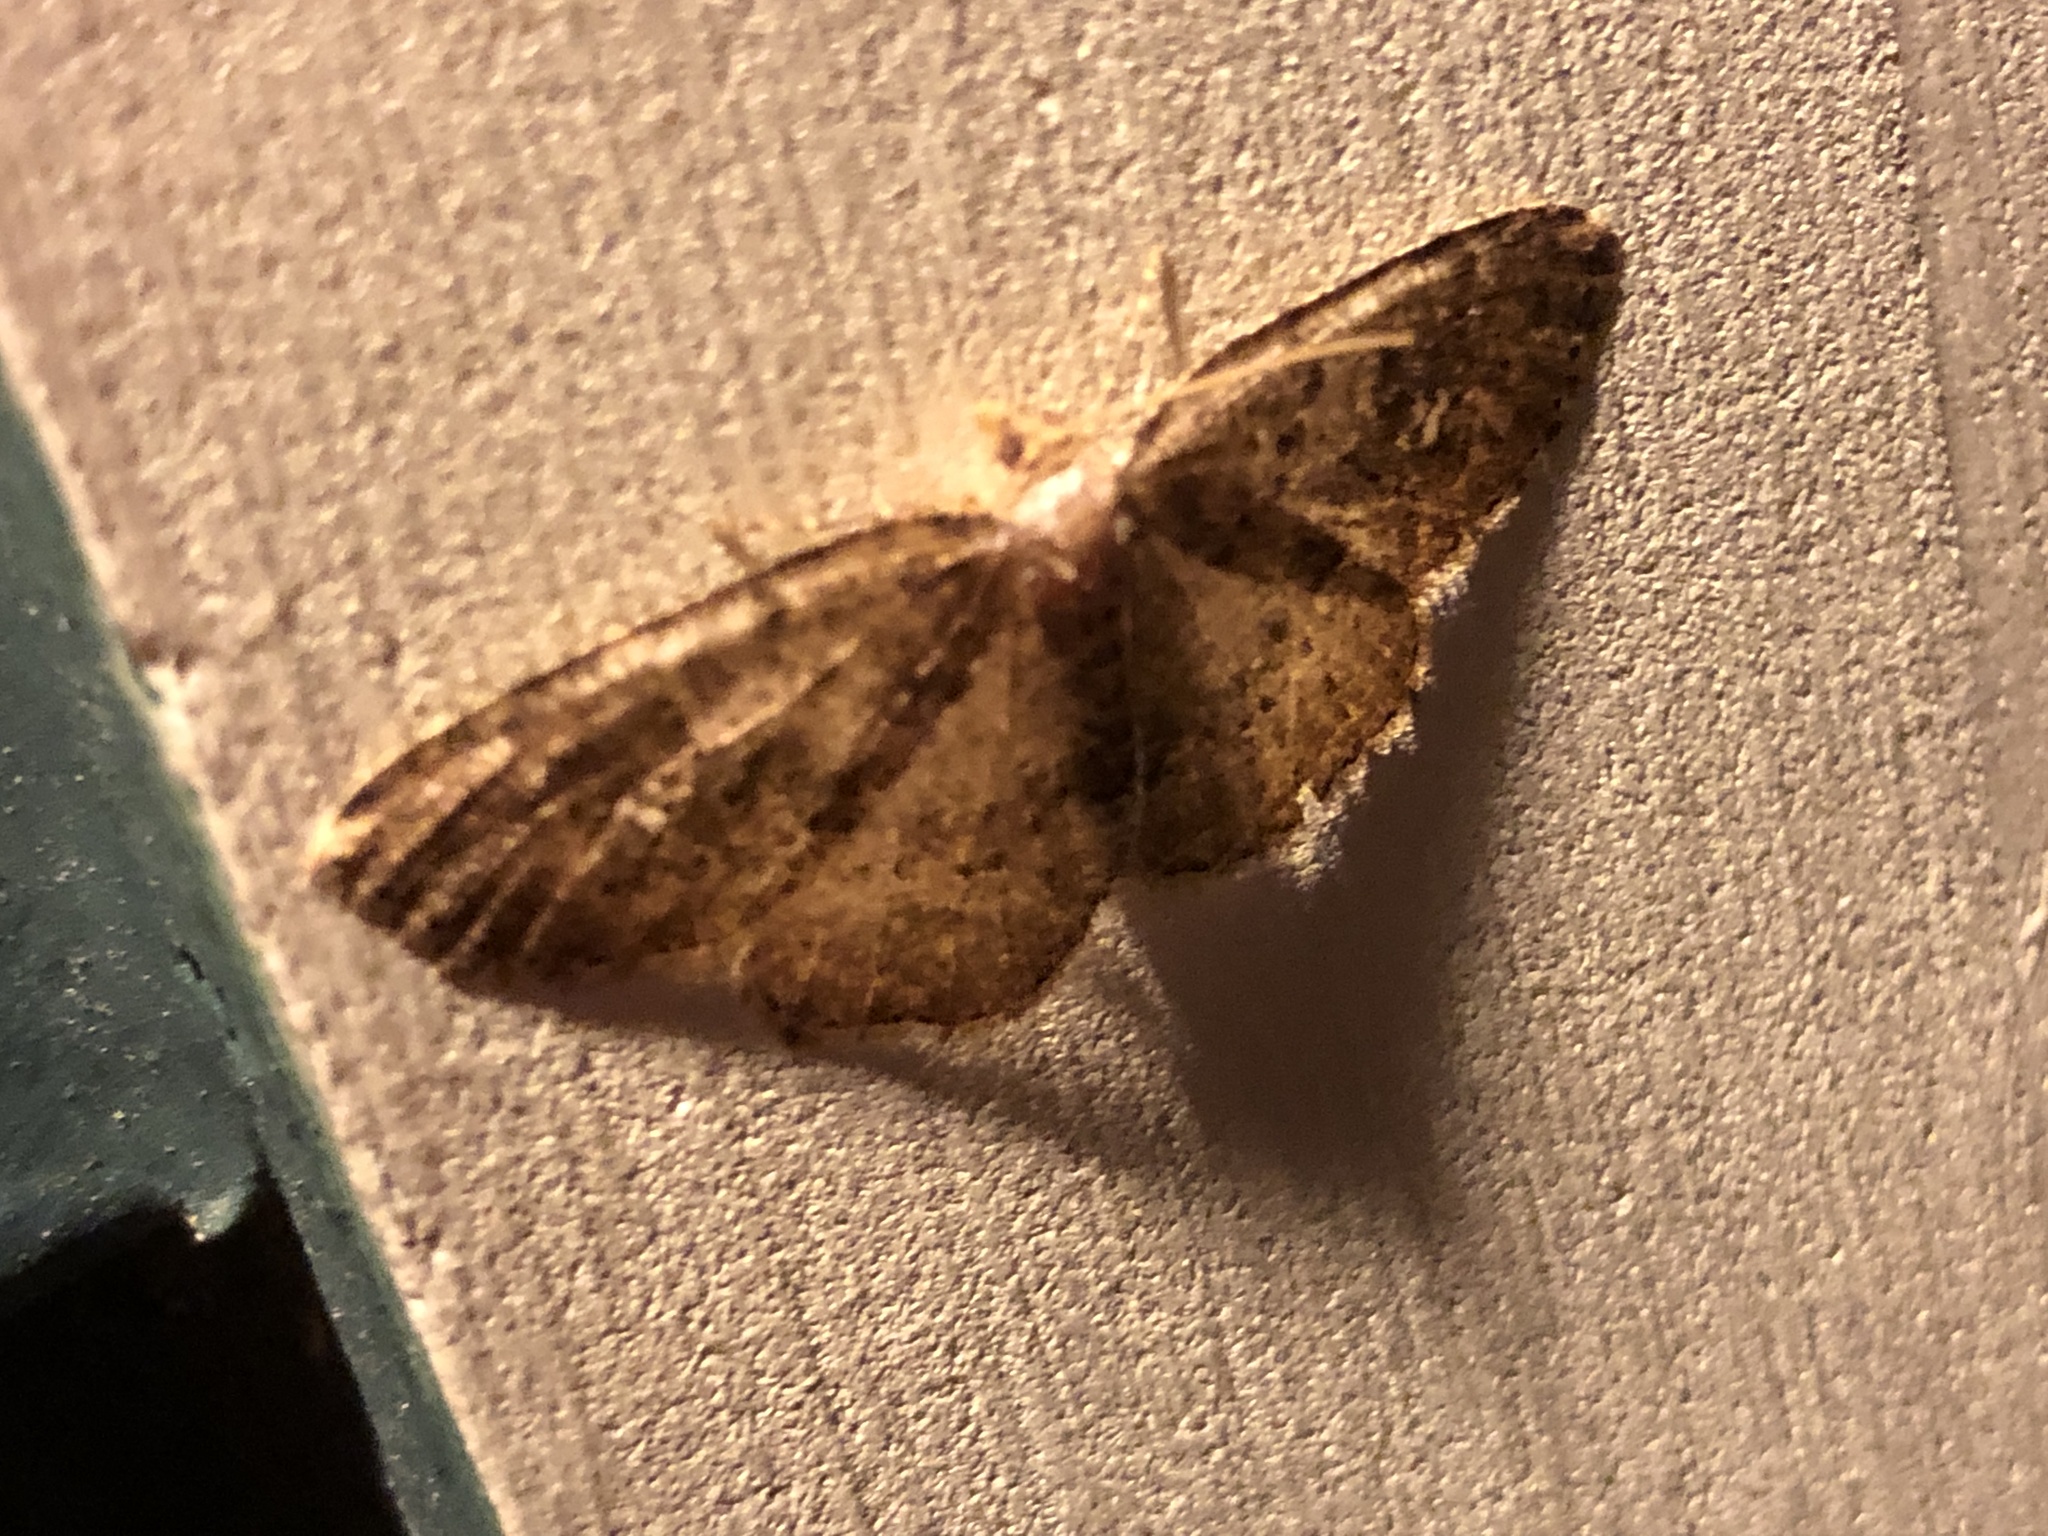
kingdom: Animalia
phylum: Arthropoda
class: Insecta
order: Lepidoptera
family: Geometridae
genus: Homochlodes
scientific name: Homochlodes fritillaria
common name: Pale homochlodes
